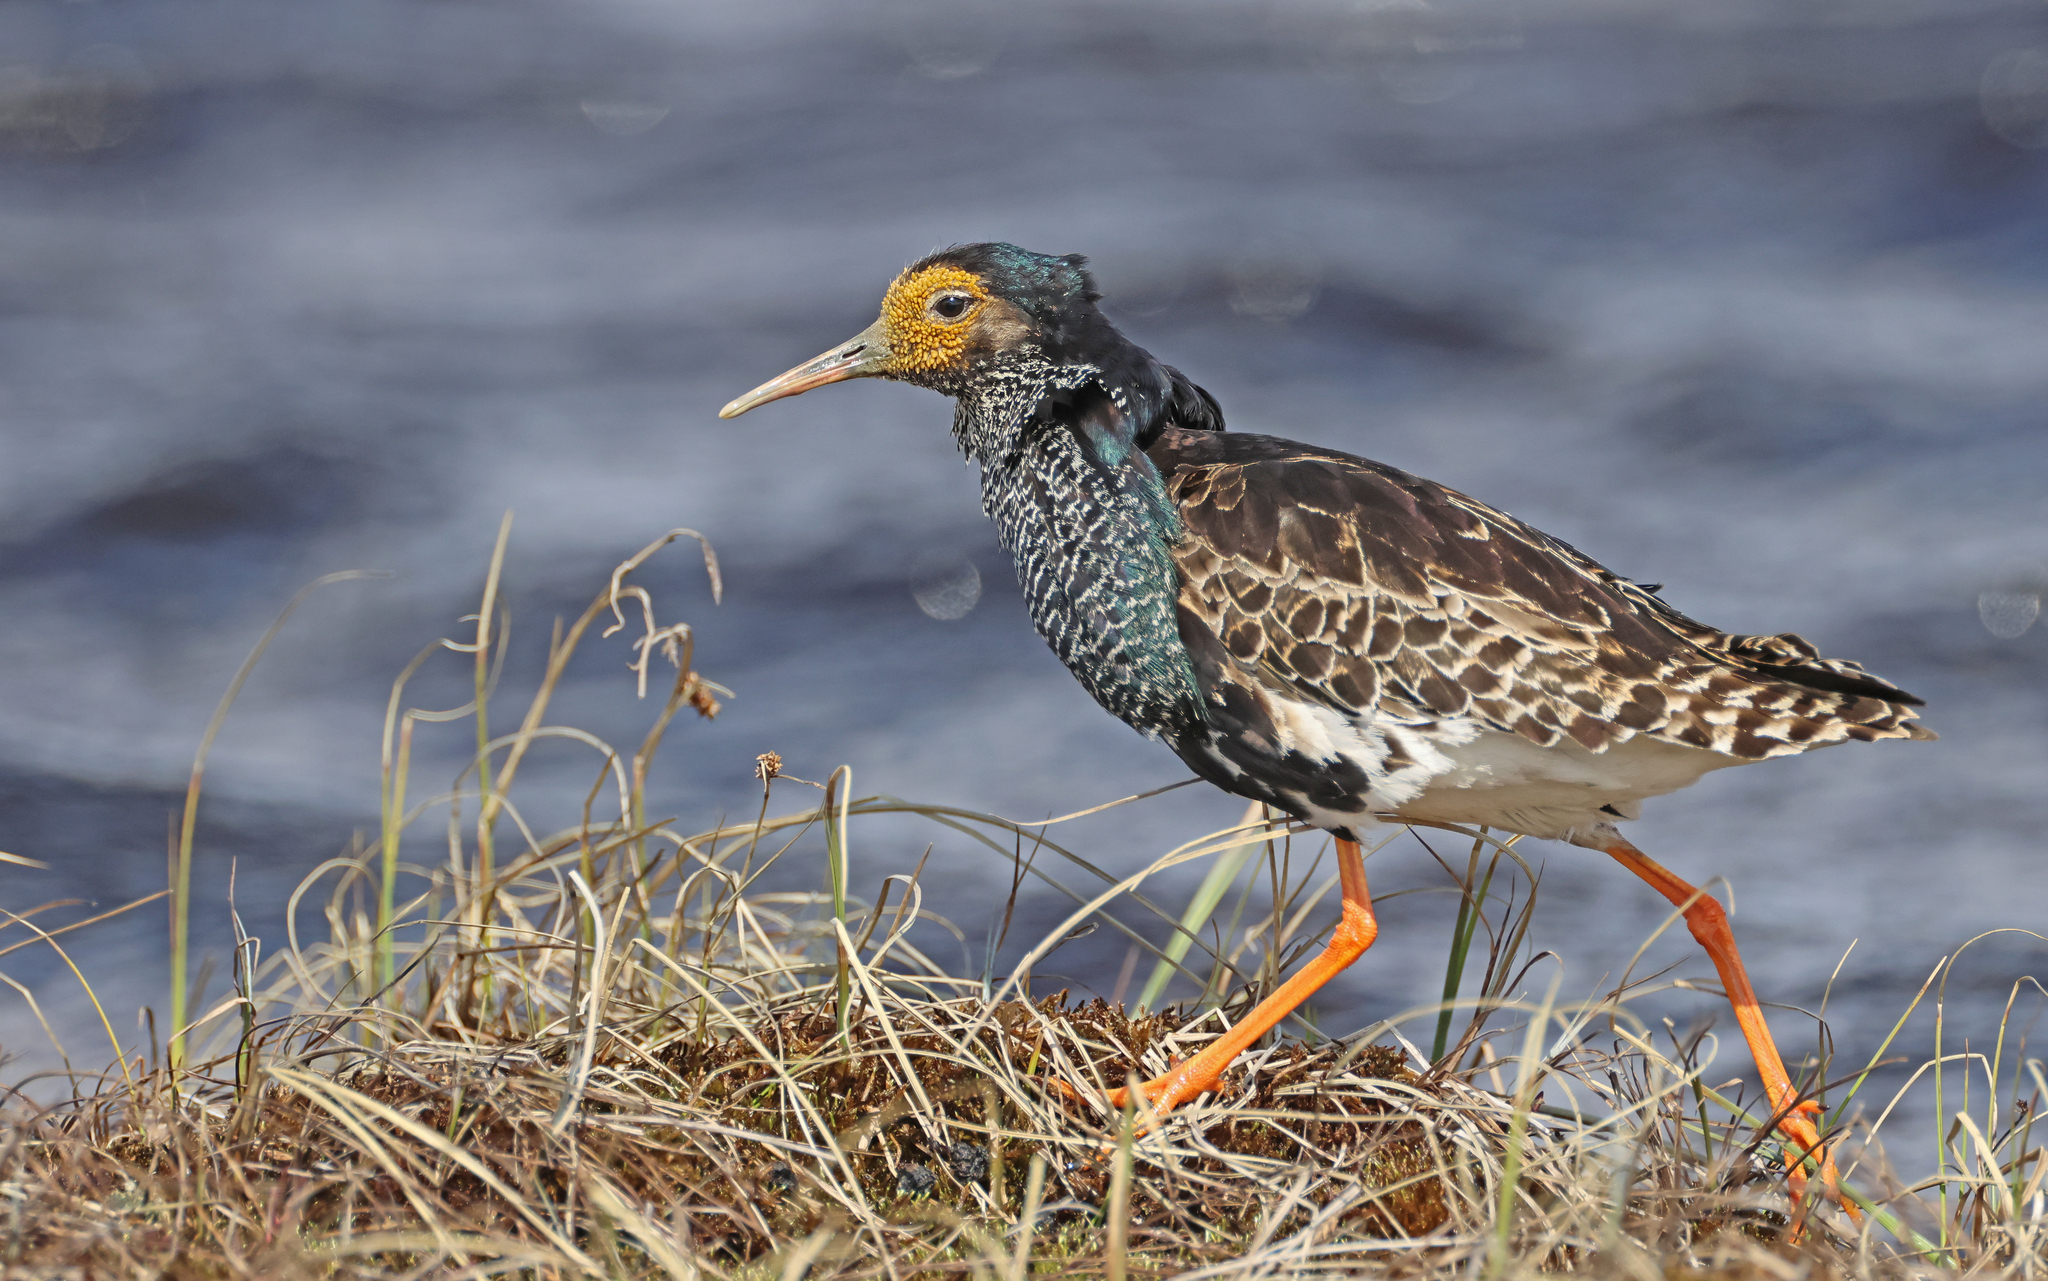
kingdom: Animalia
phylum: Chordata
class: Aves
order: Charadriiformes
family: Scolopacidae
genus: Calidris
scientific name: Calidris pugnax
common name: Ruff
